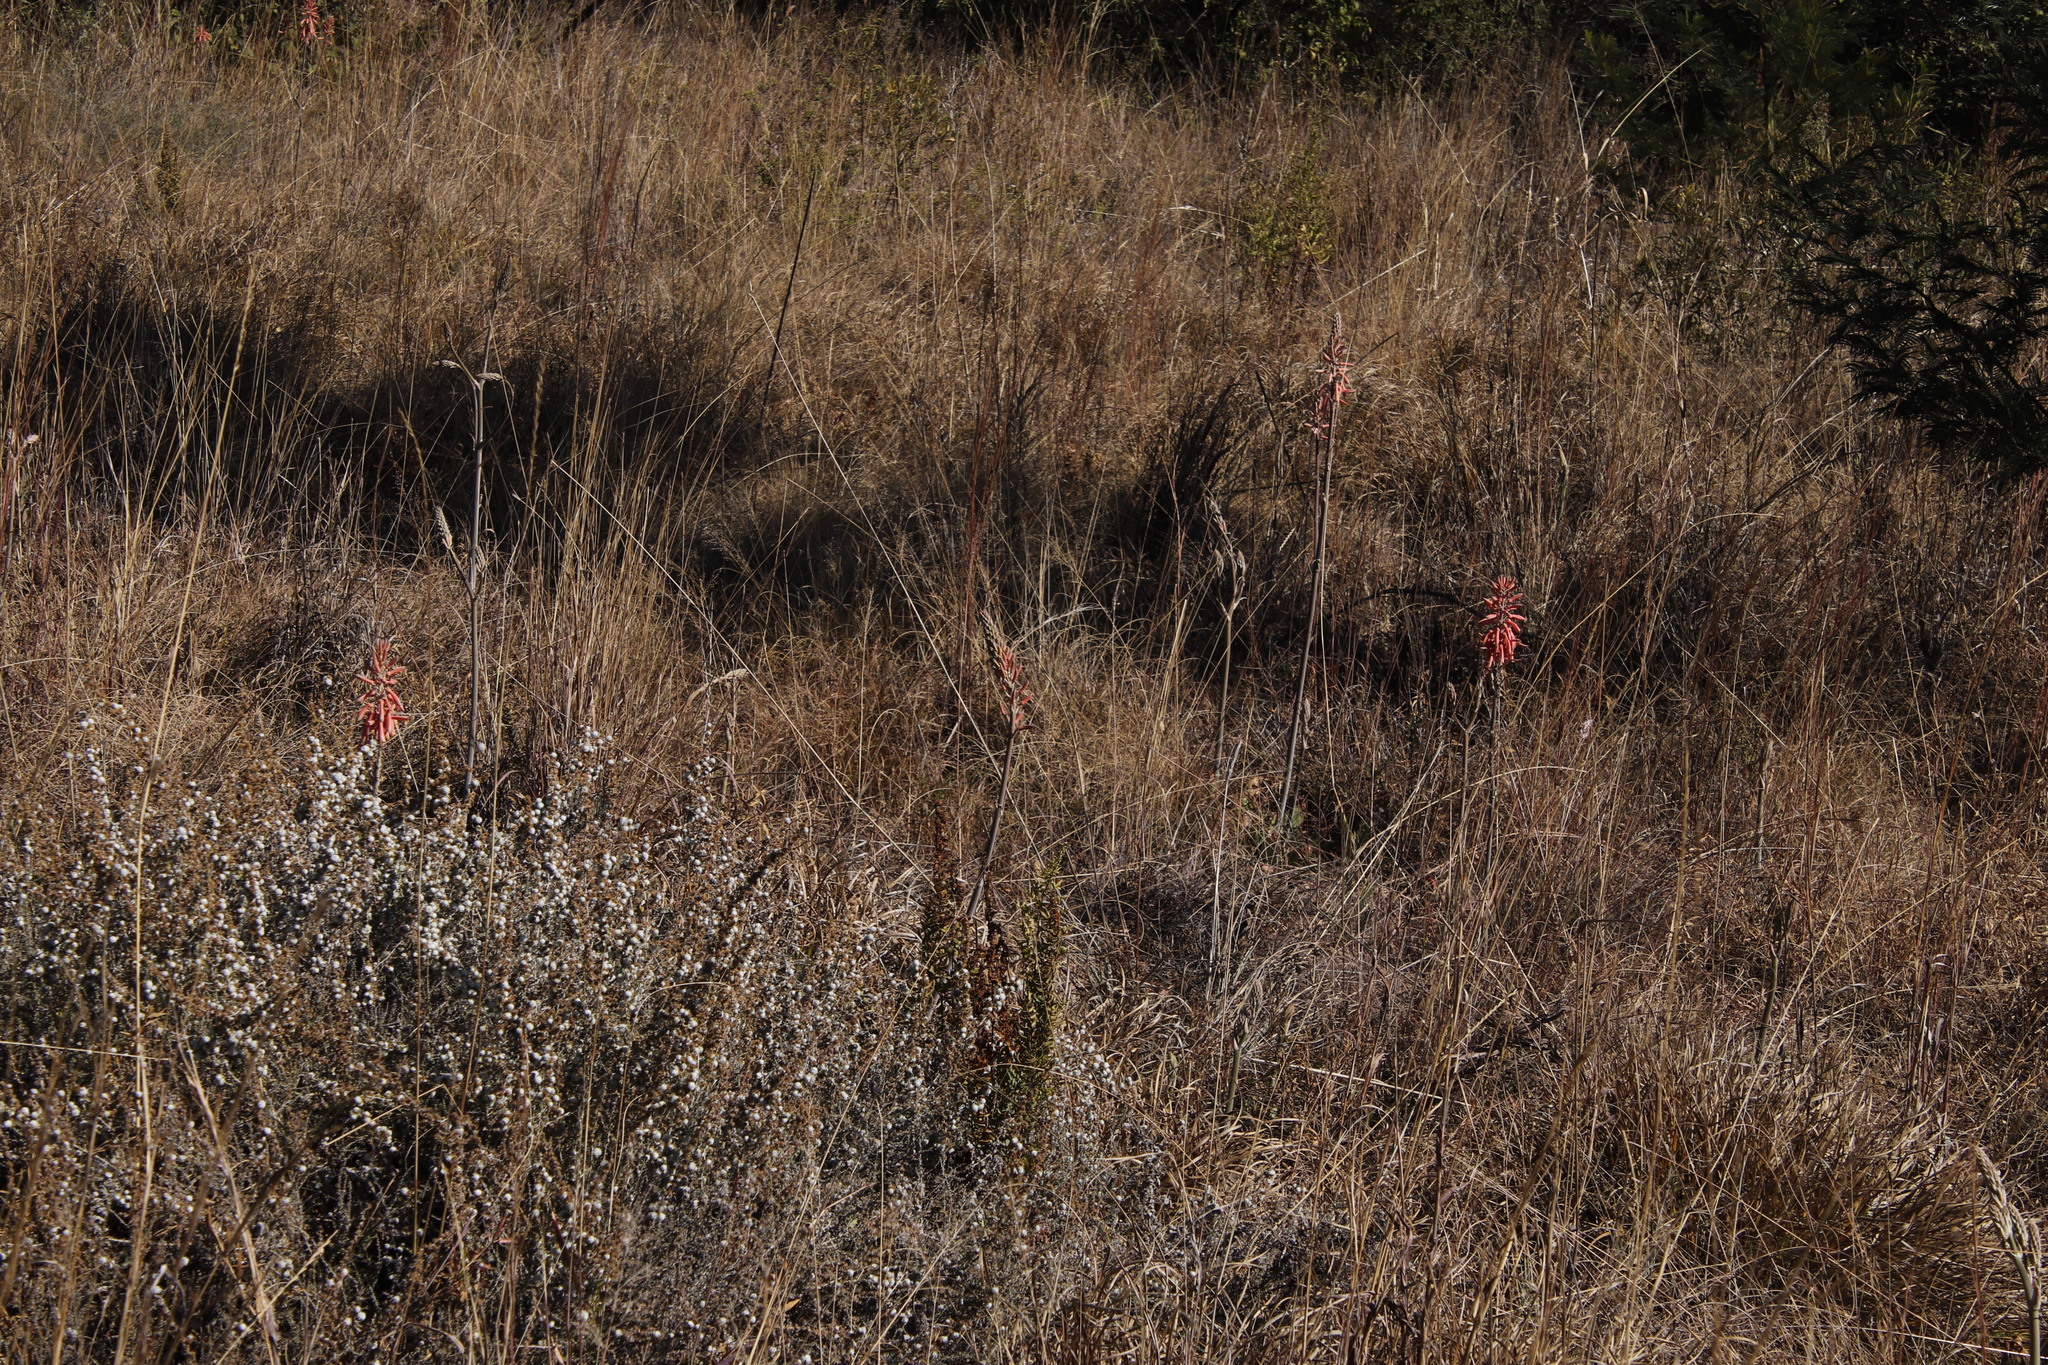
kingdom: Plantae
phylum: Tracheophyta
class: Liliopsida
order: Asparagales
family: Asphodelaceae
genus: Aloe
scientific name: Aloe davyana
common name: Spotted aloe
